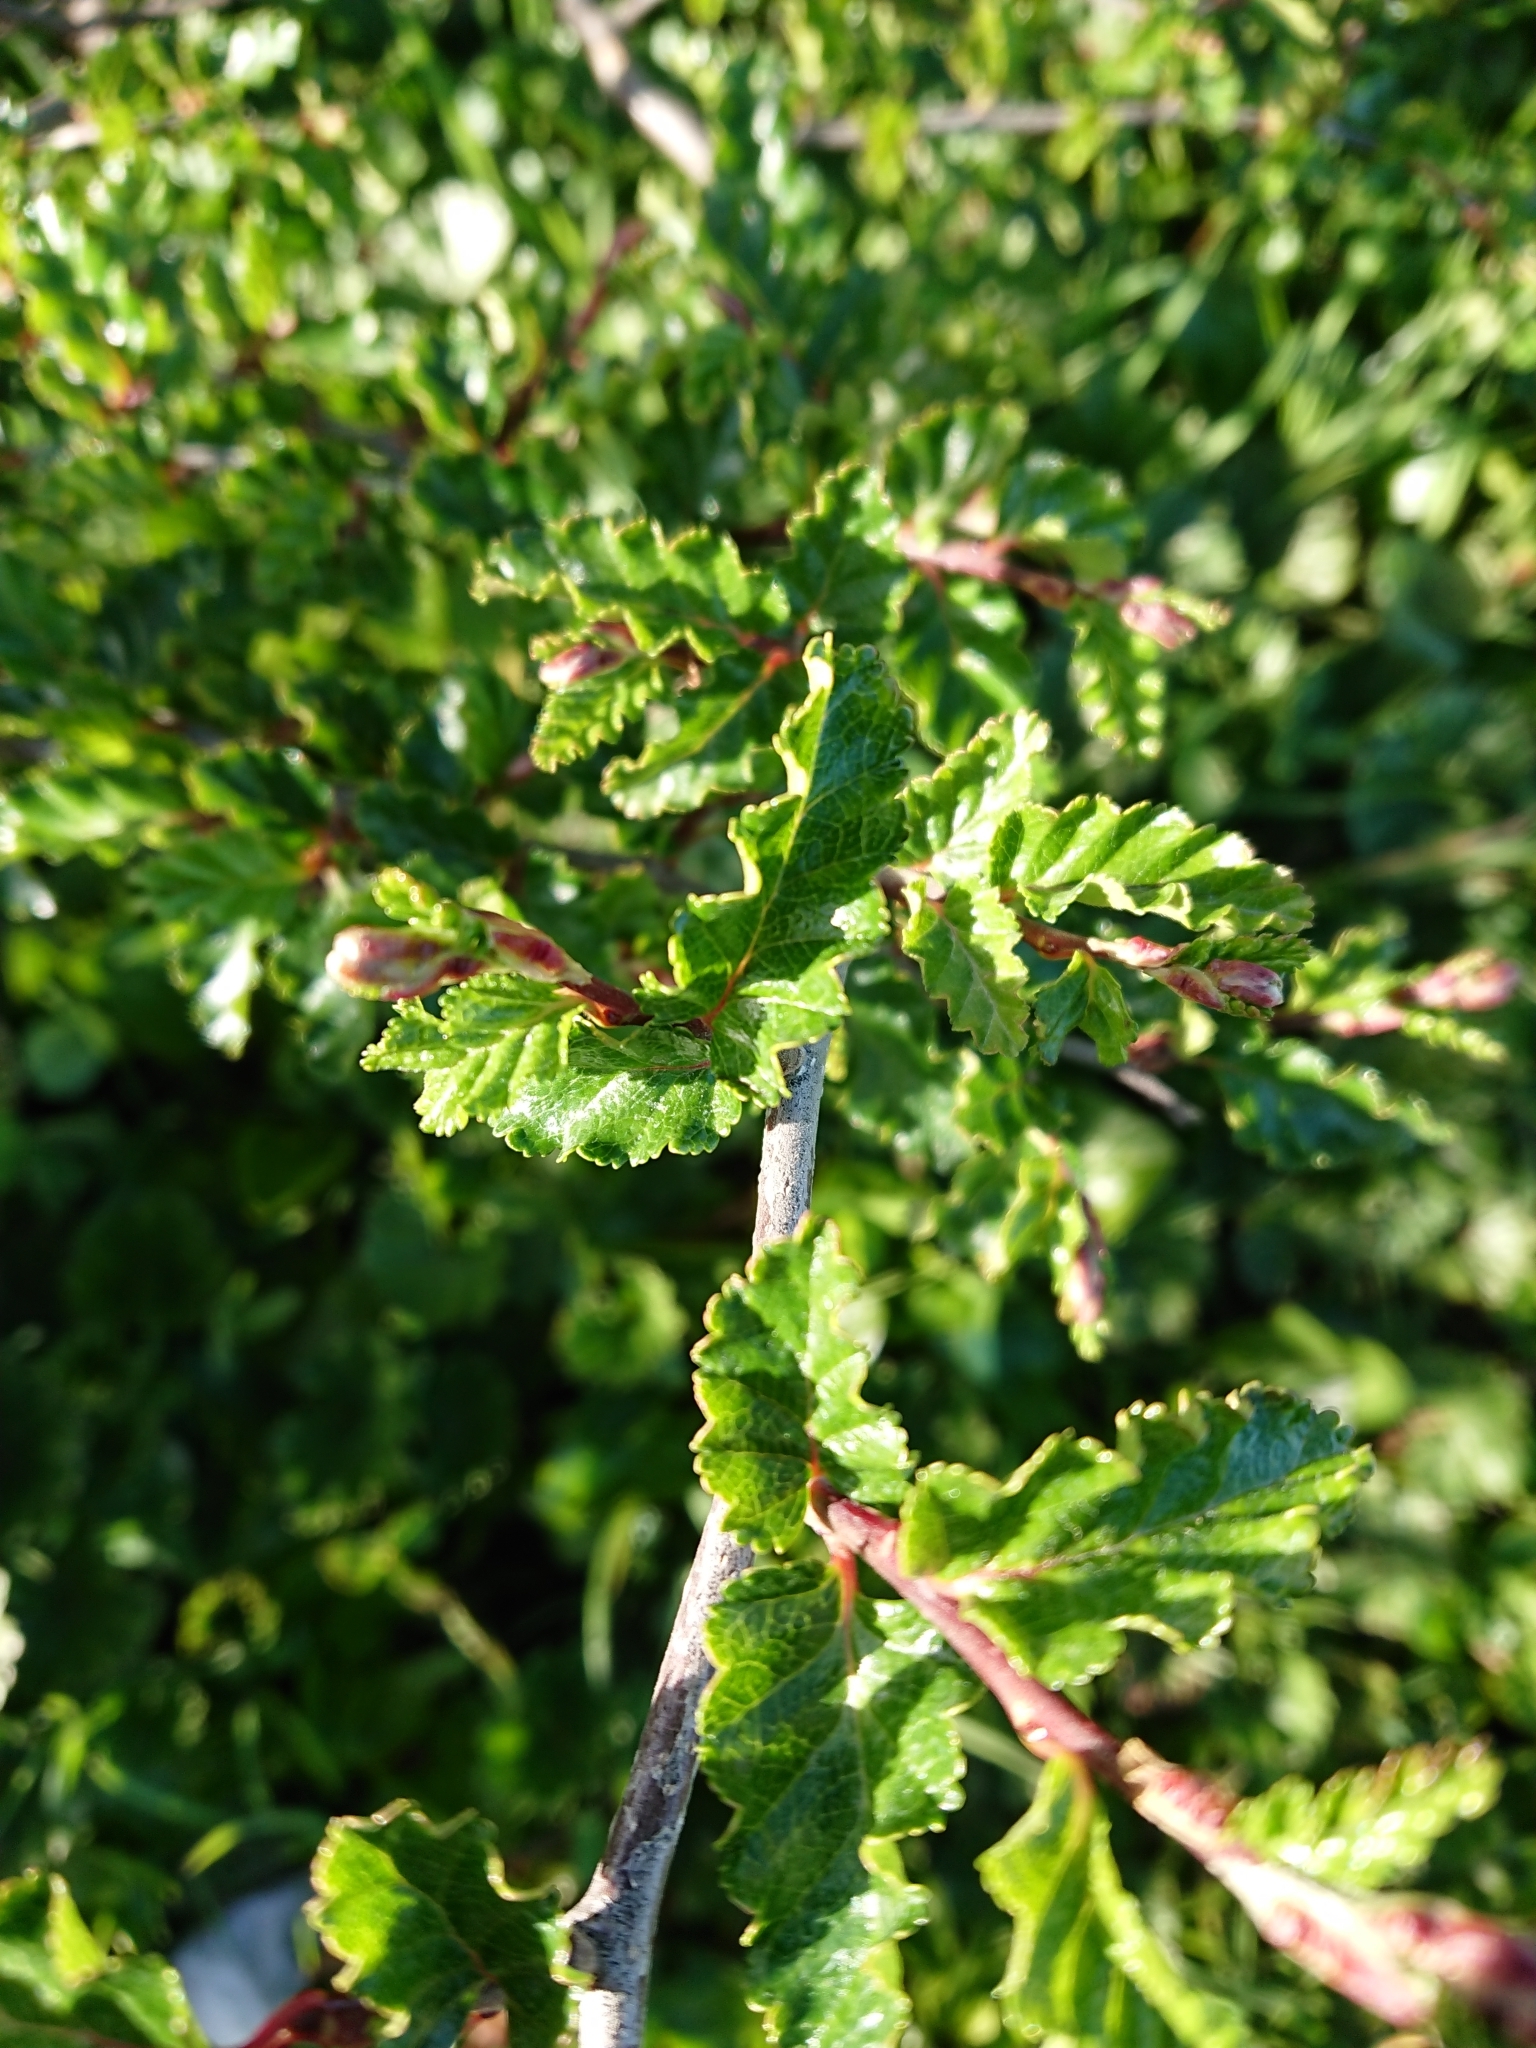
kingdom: Plantae
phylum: Tracheophyta
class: Magnoliopsida
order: Fagales
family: Nothofagaceae
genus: Nothofagus
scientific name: Nothofagus antarctica
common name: Antarctic beech
